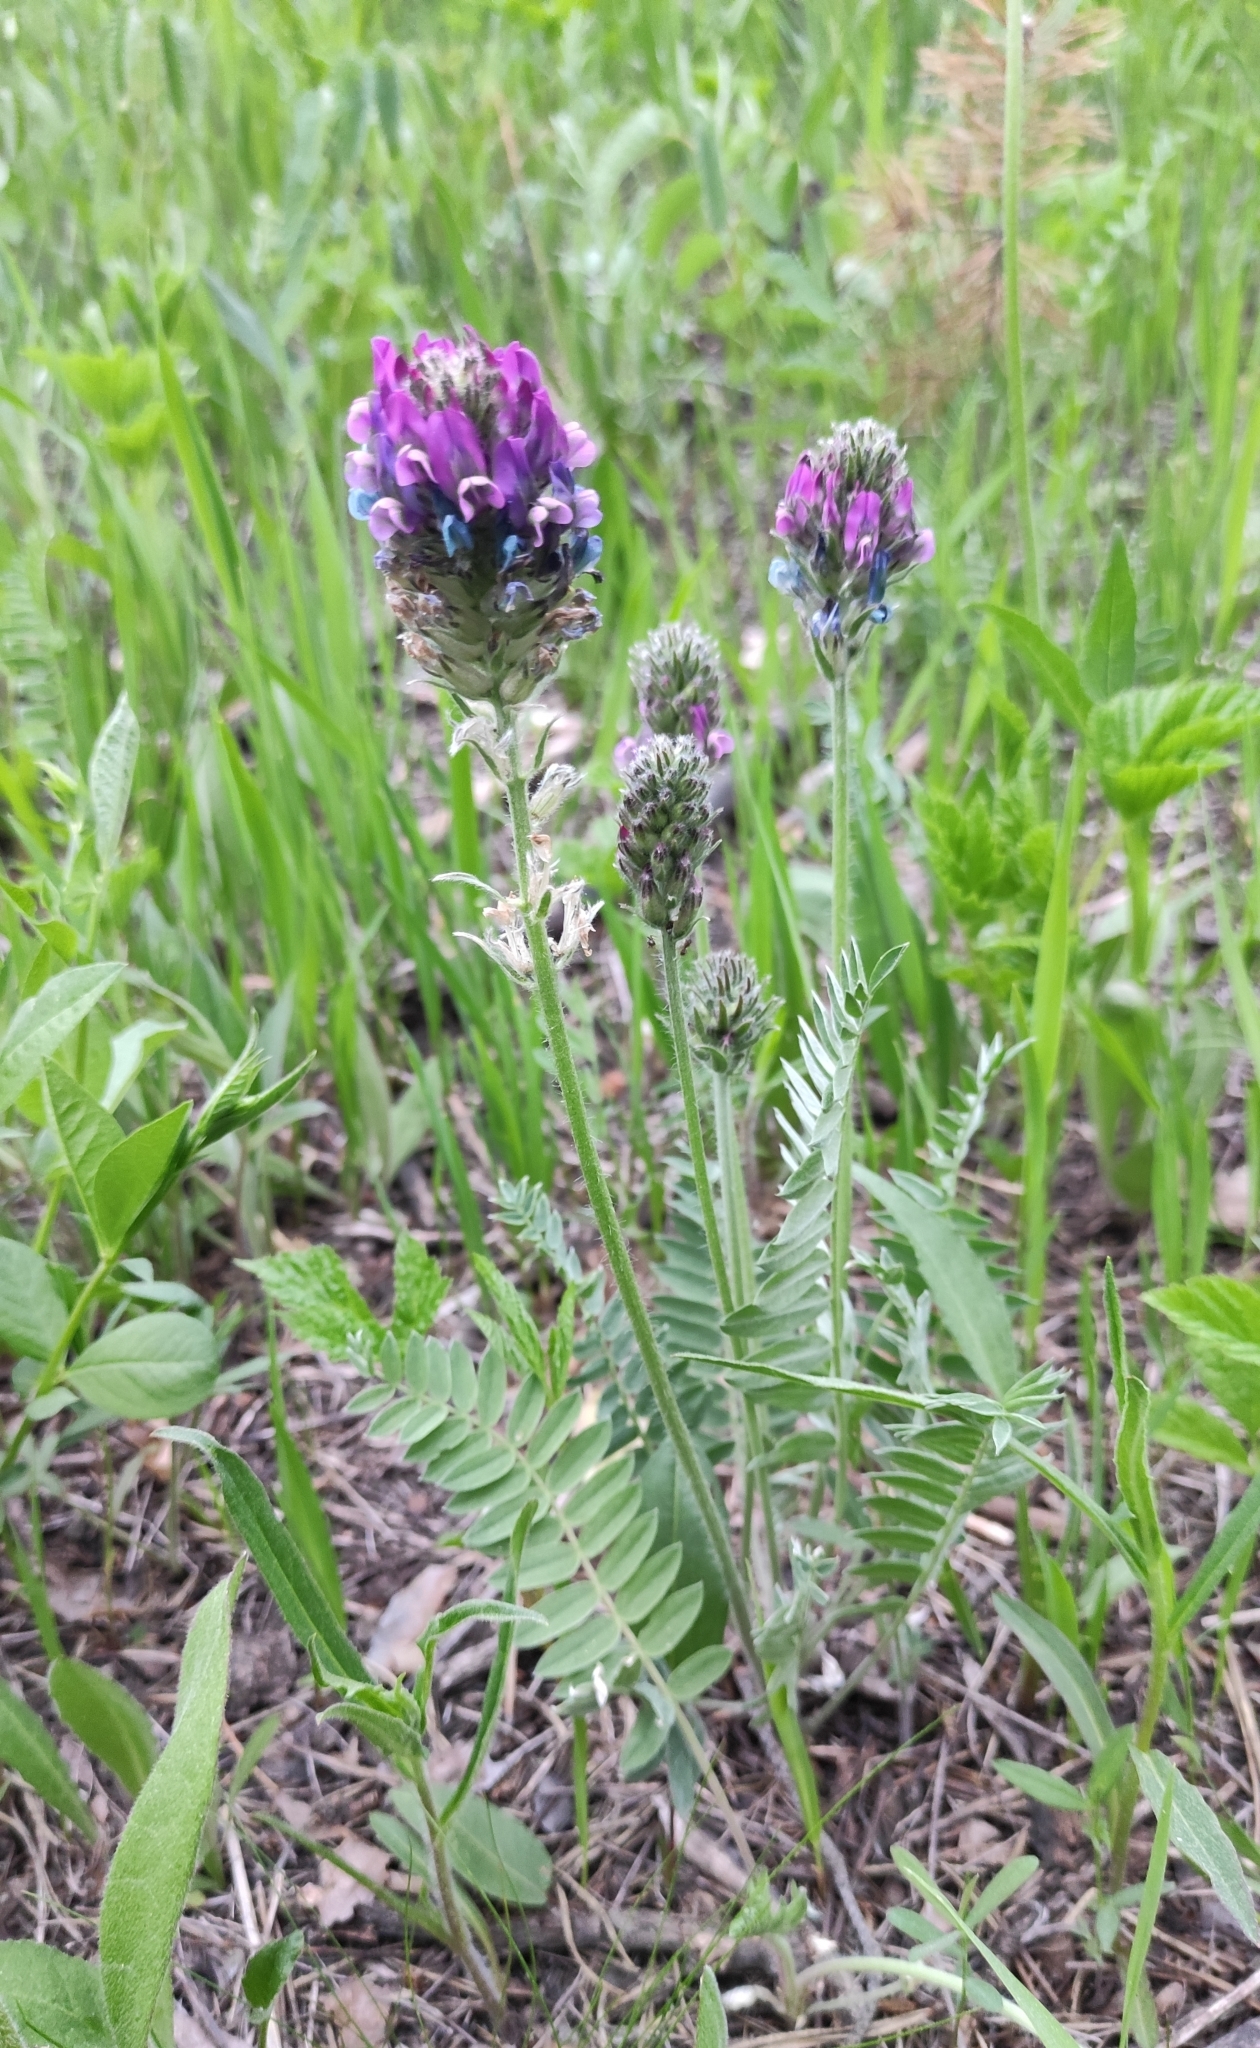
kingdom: Plantae
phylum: Tracheophyta
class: Magnoliopsida
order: Fabales
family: Fabaceae
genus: Oxytropis
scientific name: Oxytropis strobilacea
